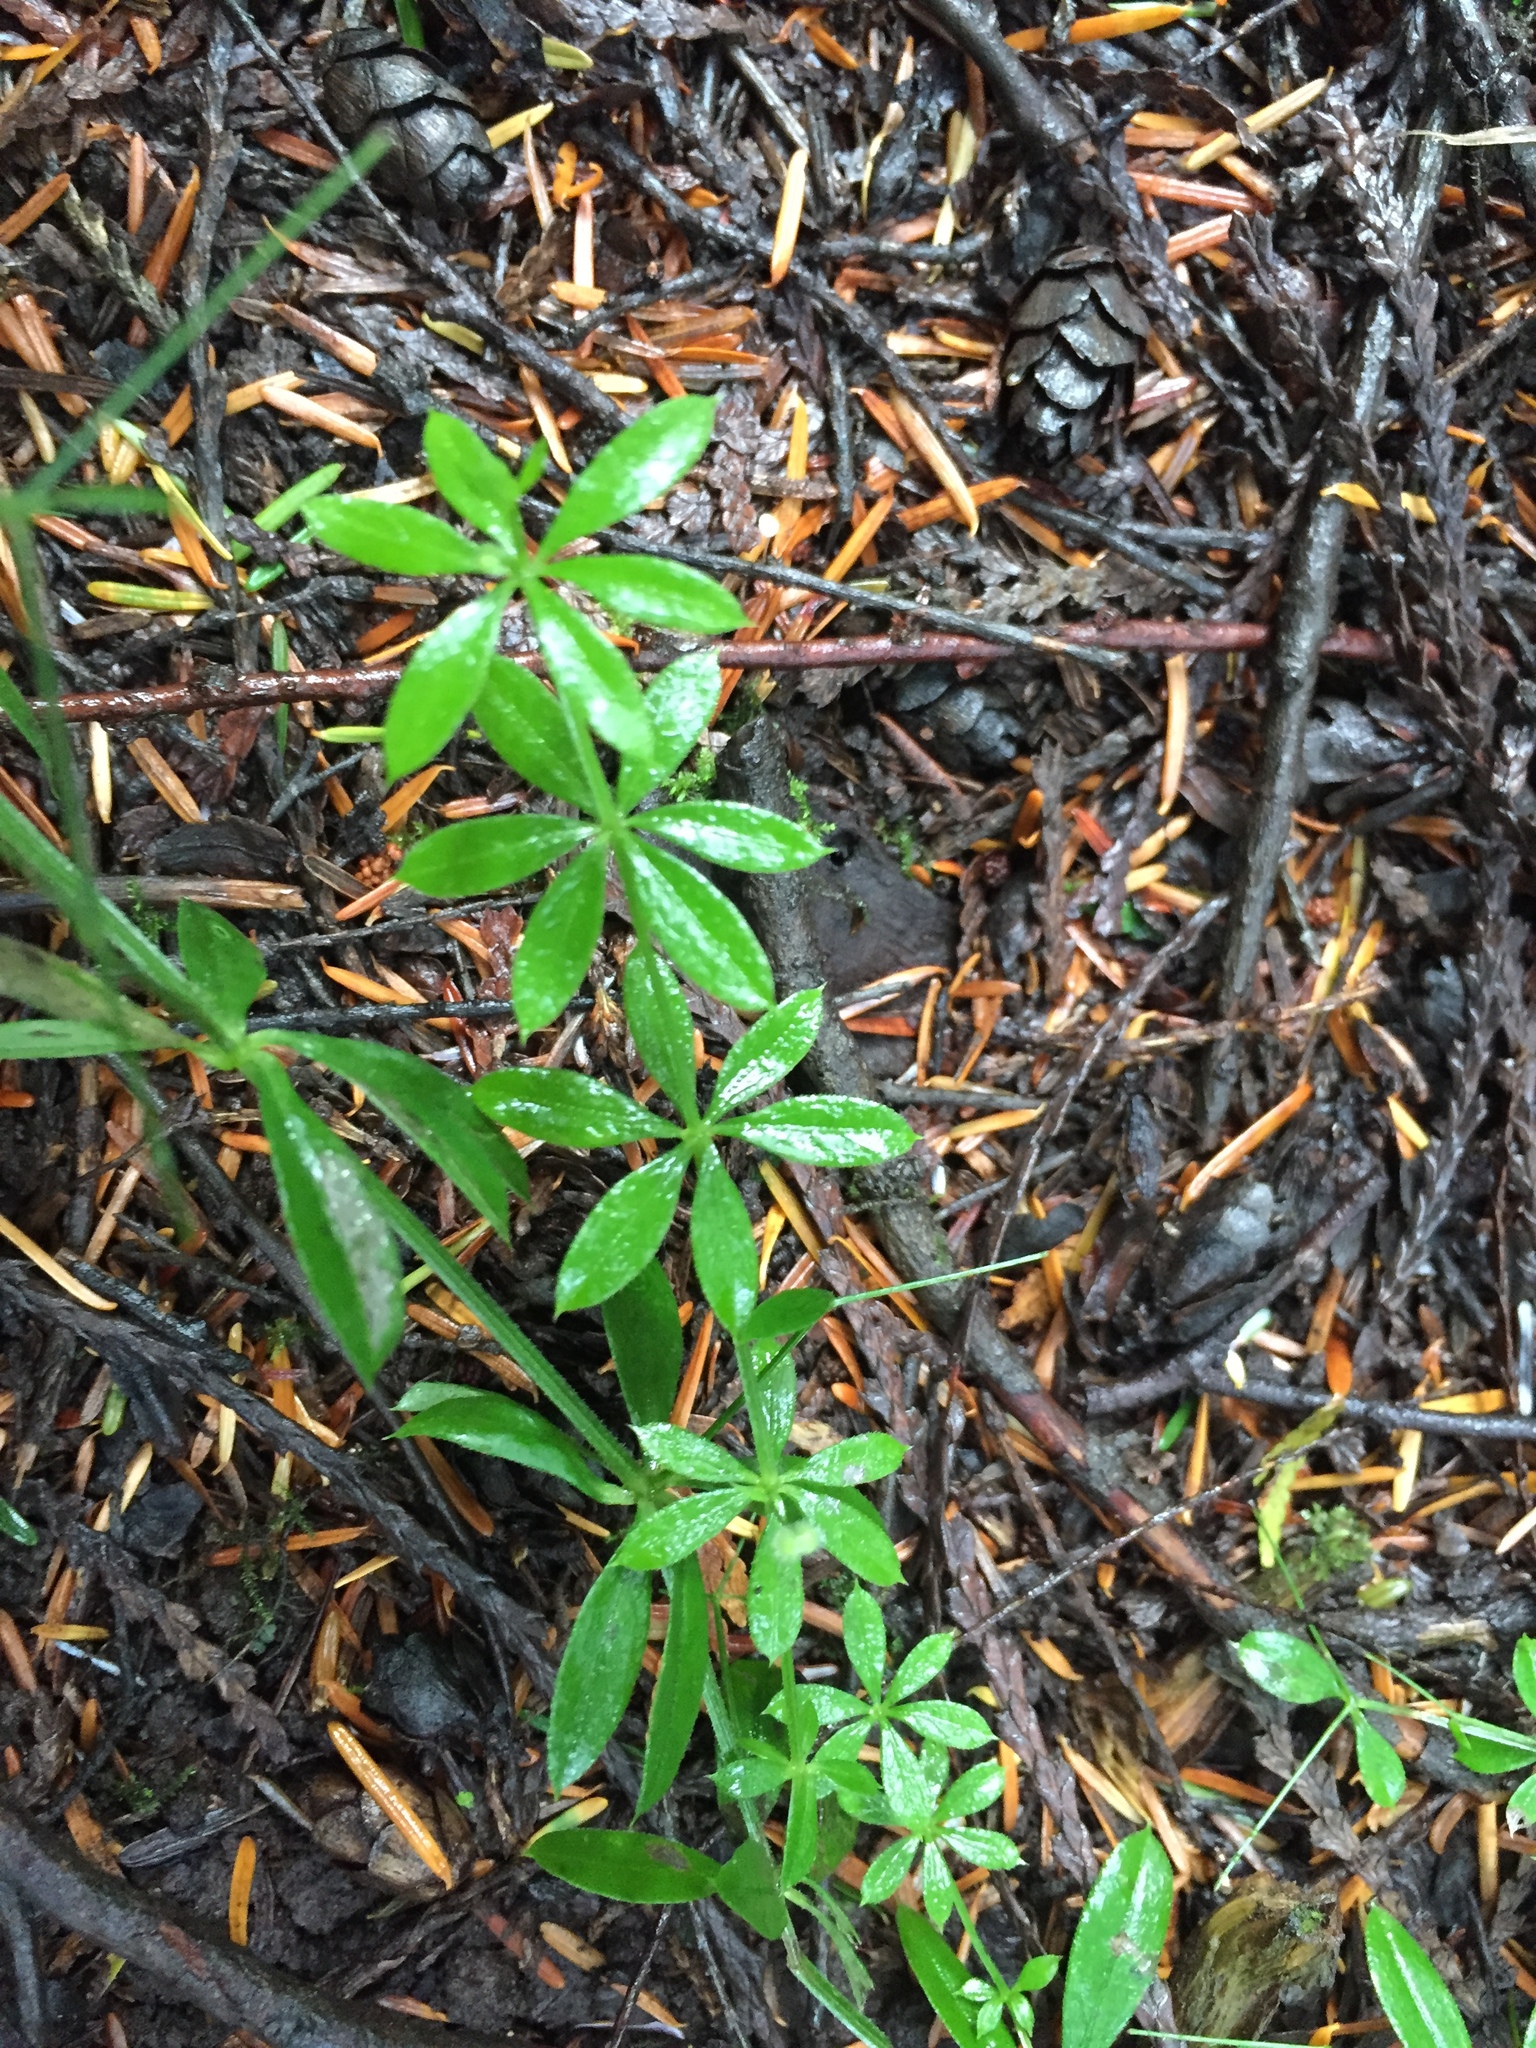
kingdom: Plantae
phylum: Tracheophyta
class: Magnoliopsida
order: Gentianales
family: Rubiaceae
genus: Galium
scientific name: Galium triflorum
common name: Fragrant bedstraw
